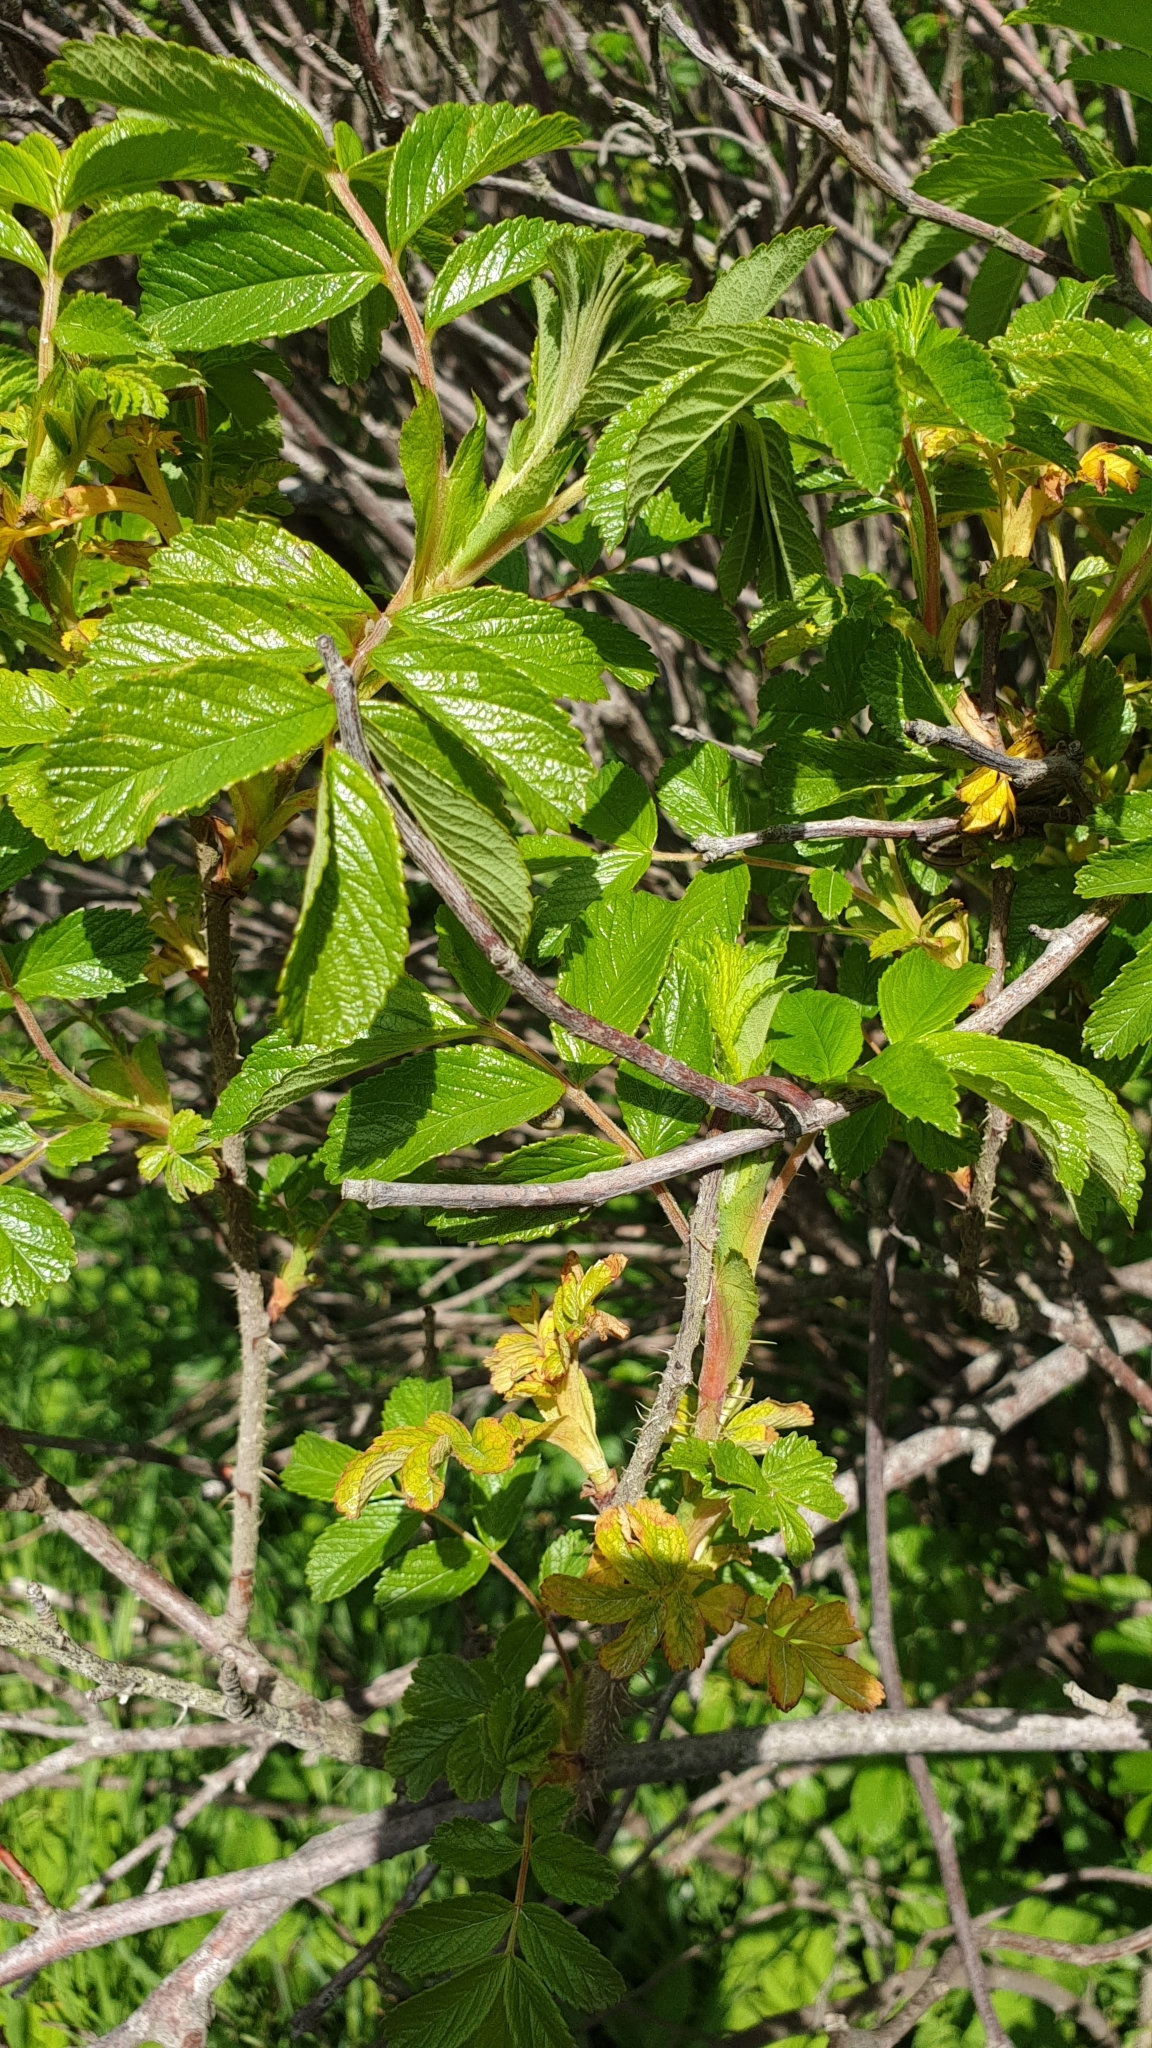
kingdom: Plantae
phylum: Tracheophyta
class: Magnoliopsida
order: Rosales
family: Rosaceae
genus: Rosa
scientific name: Rosa rugosa
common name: Japanese rose
